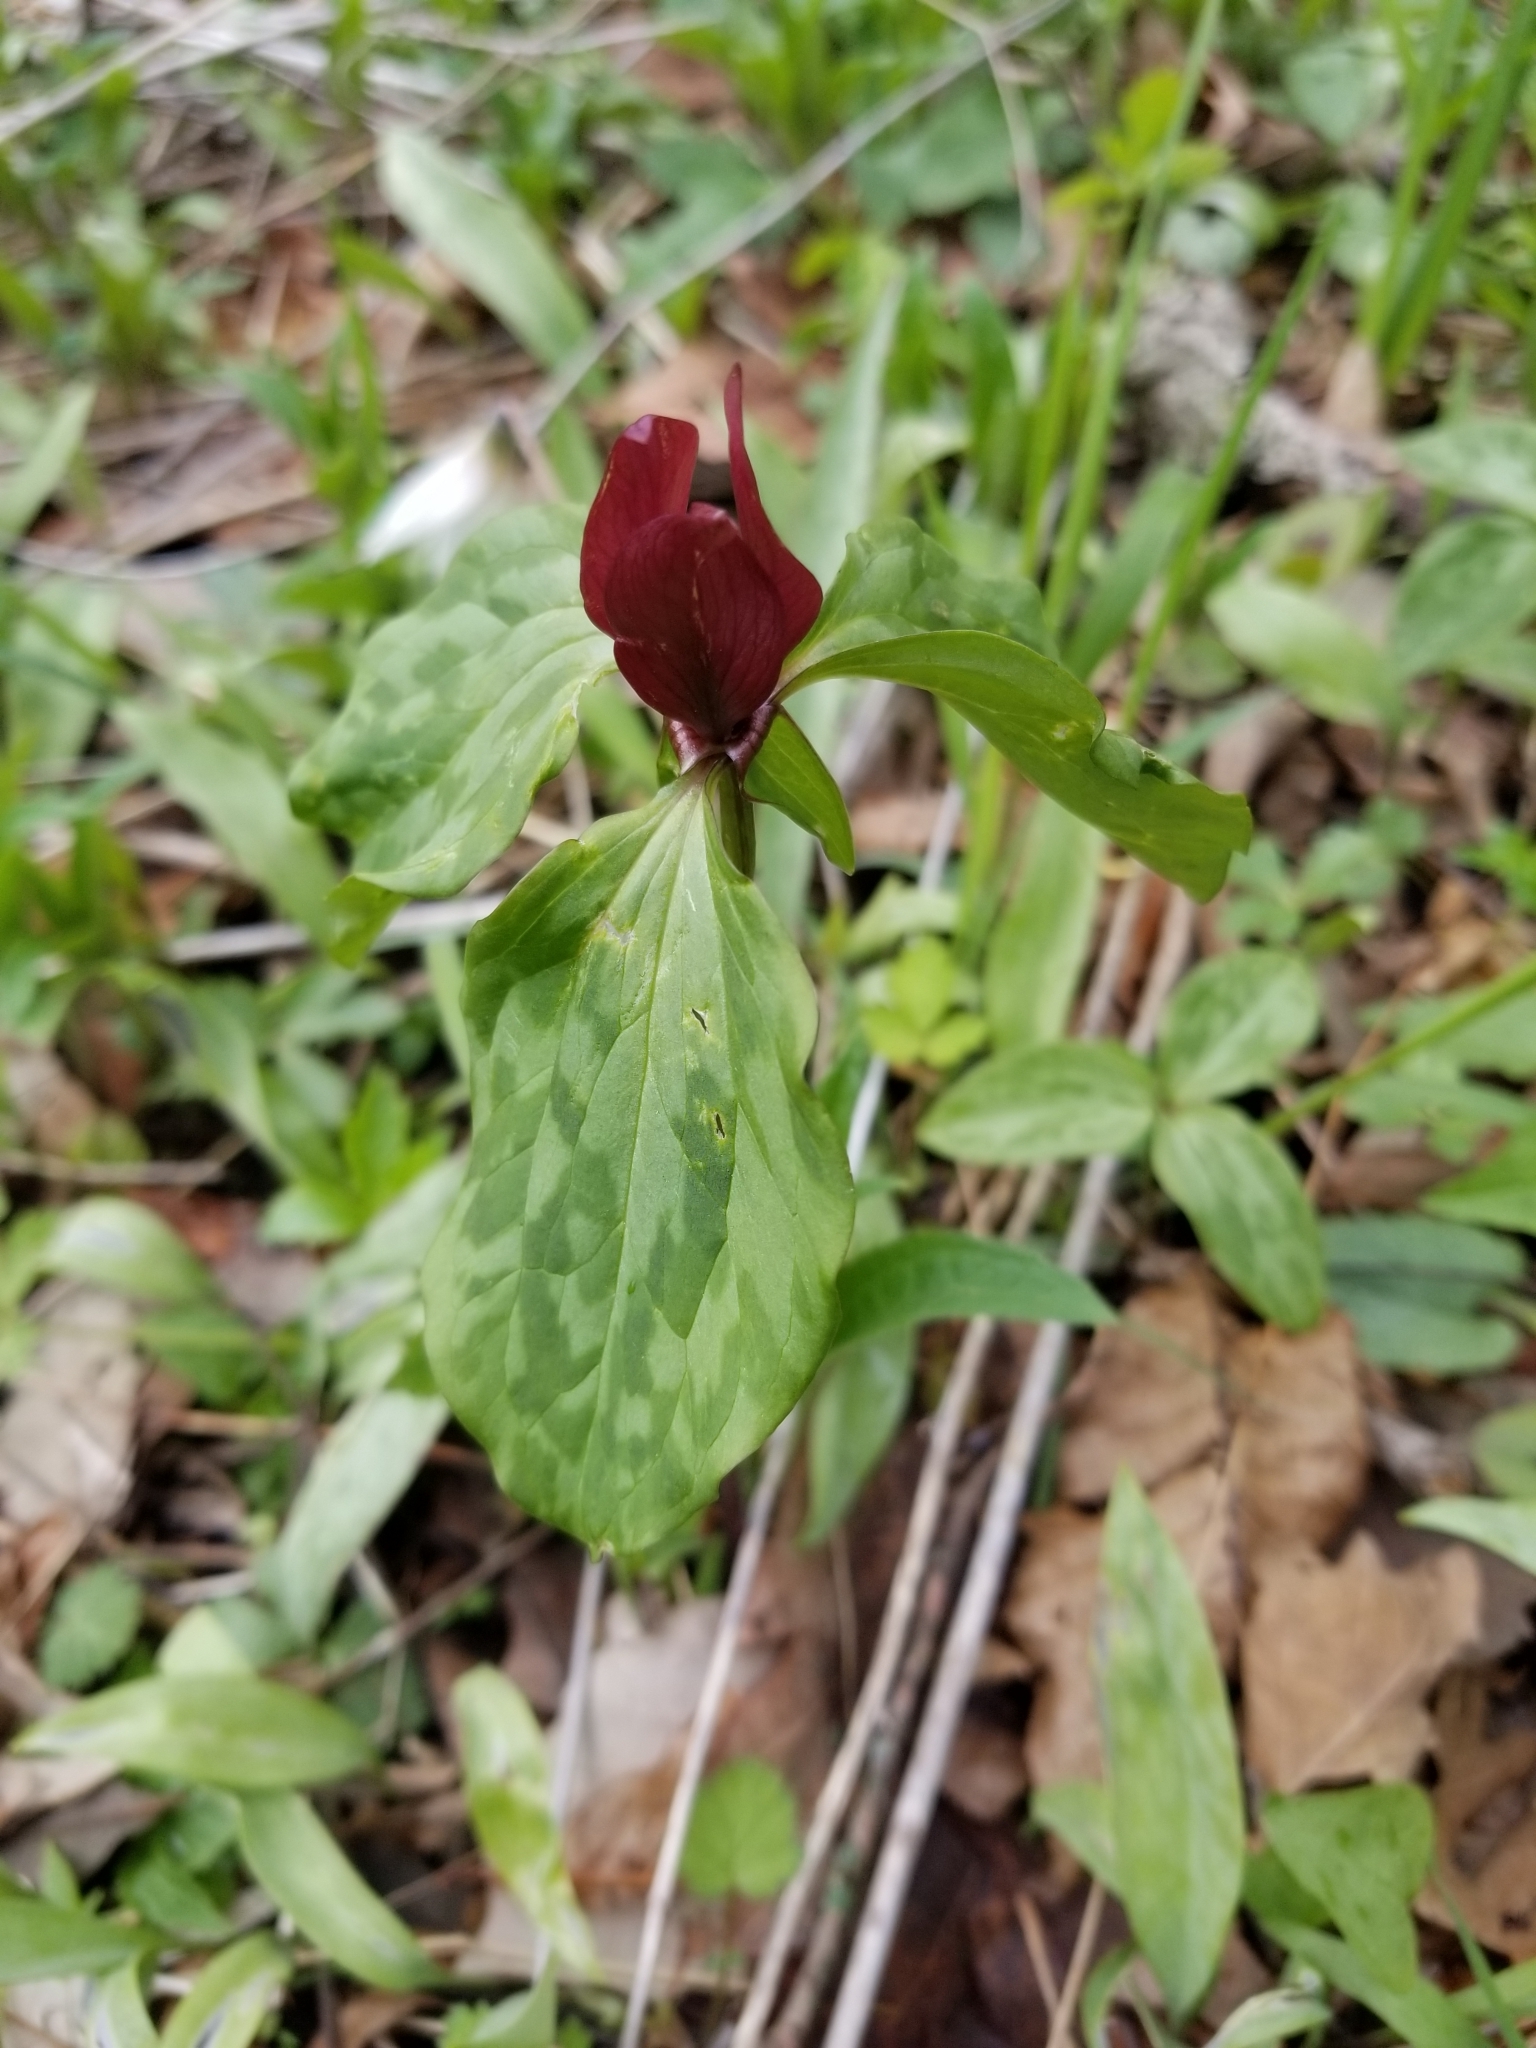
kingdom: Plantae
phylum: Tracheophyta
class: Liliopsida
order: Liliales
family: Melanthiaceae
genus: Trillium
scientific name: Trillium recurvatum
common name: Bloody butcher
